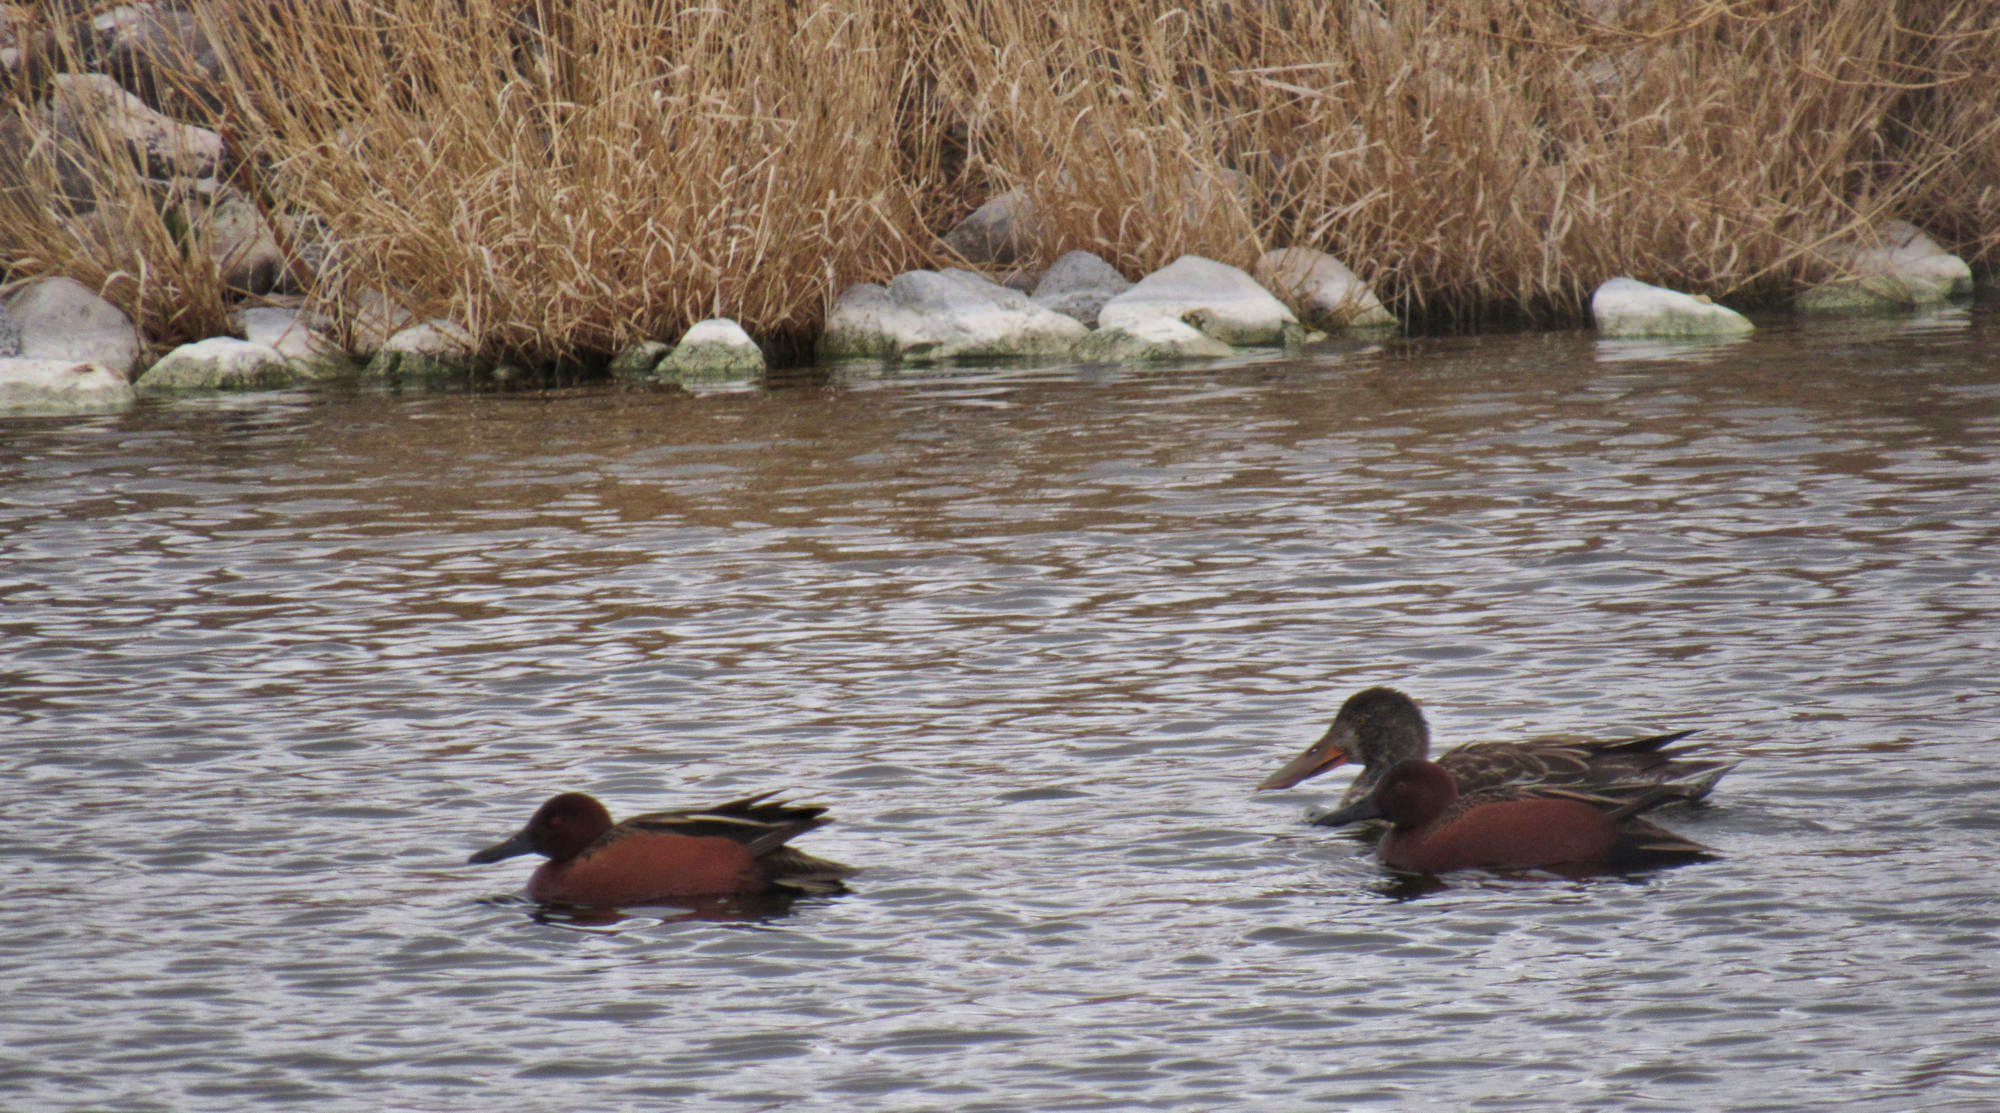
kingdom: Animalia
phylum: Chordata
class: Aves
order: Anseriformes
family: Anatidae
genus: Spatula
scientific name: Spatula cyanoptera
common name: Cinnamon teal
